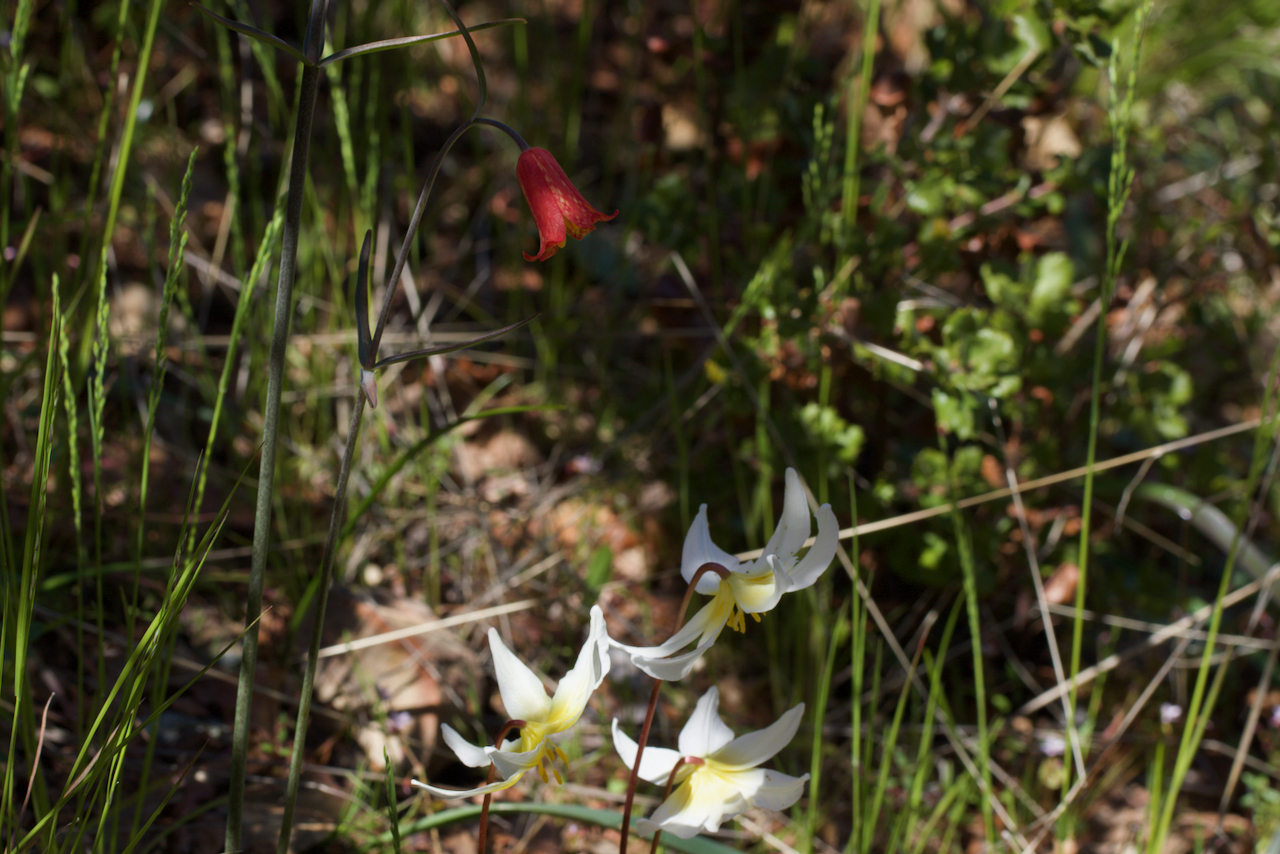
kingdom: Plantae
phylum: Tracheophyta
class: Liliopsida
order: Liliales
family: Liliaceae
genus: Fritillaria
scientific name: Fritillaria recurva
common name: Scarlet fritillary
